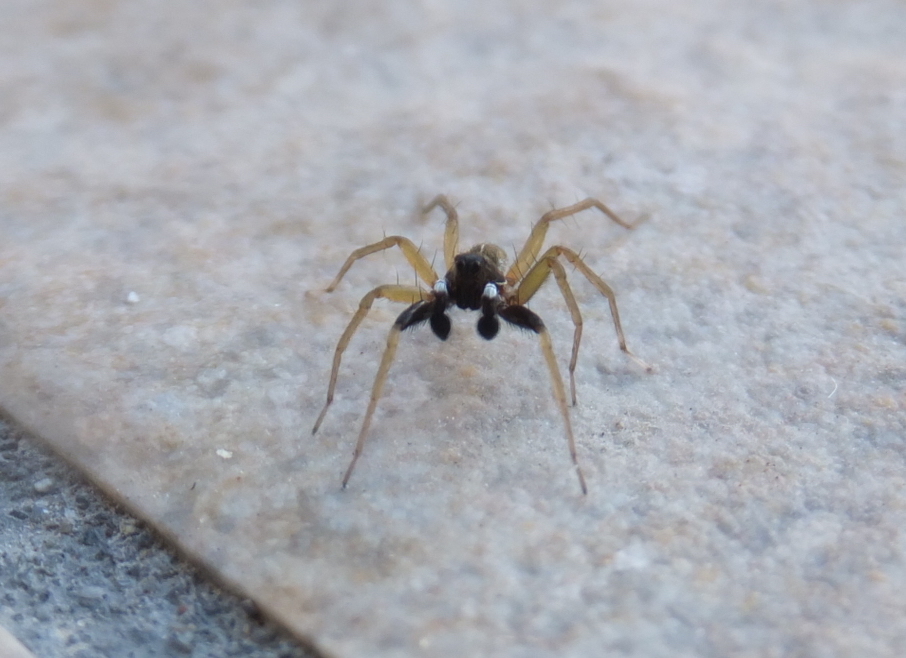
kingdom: Animalia
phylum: Arthropoda
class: Arachnida
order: Araneae
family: Lycosidae
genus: Aulonia
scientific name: Aulonia albimana
